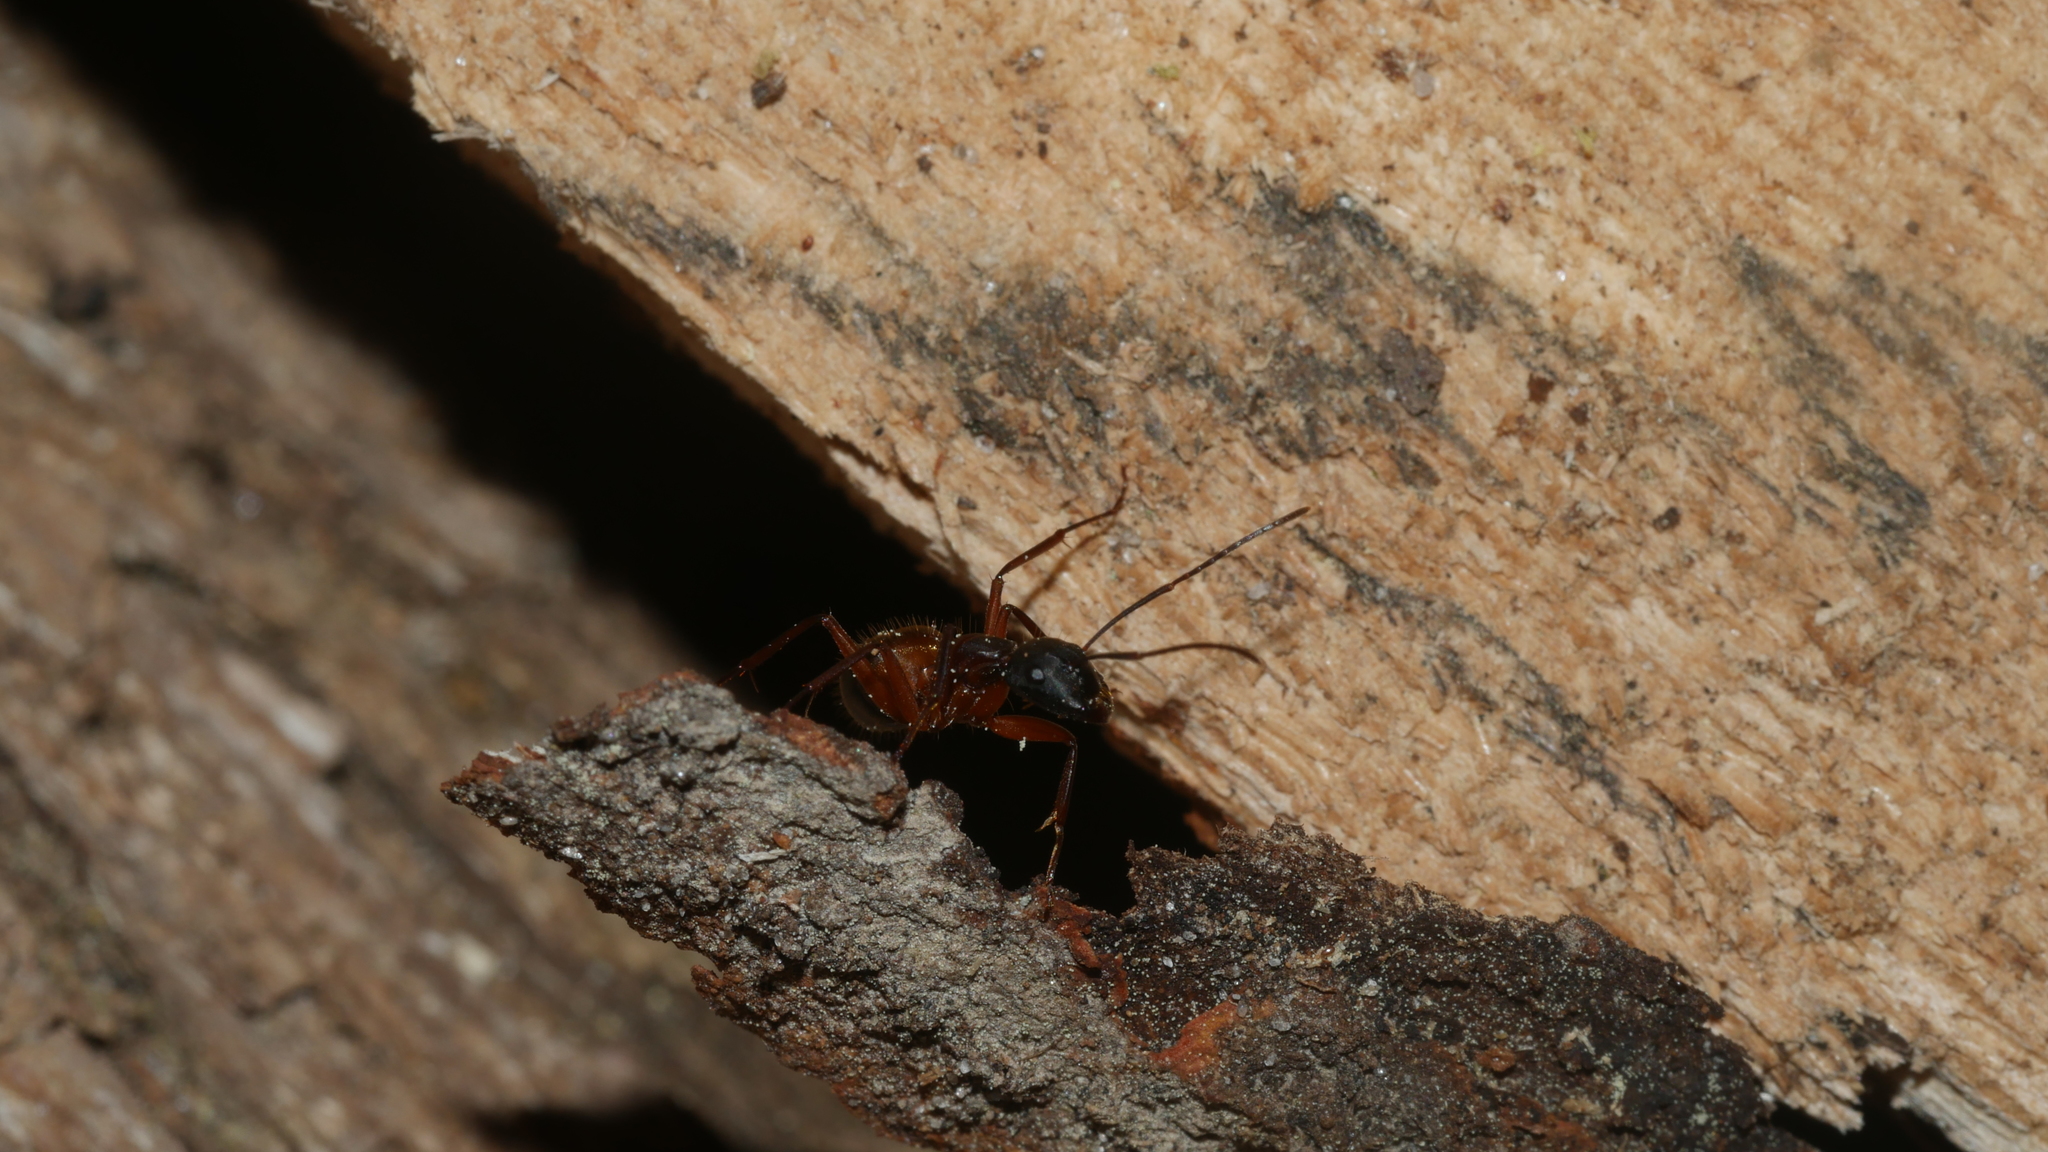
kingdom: Animalia
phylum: Arthropoda
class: Insecta
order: Hymenoptera
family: Formicidae
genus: Camponotus
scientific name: Camponotus chromaiodes
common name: Red carpenter ant
